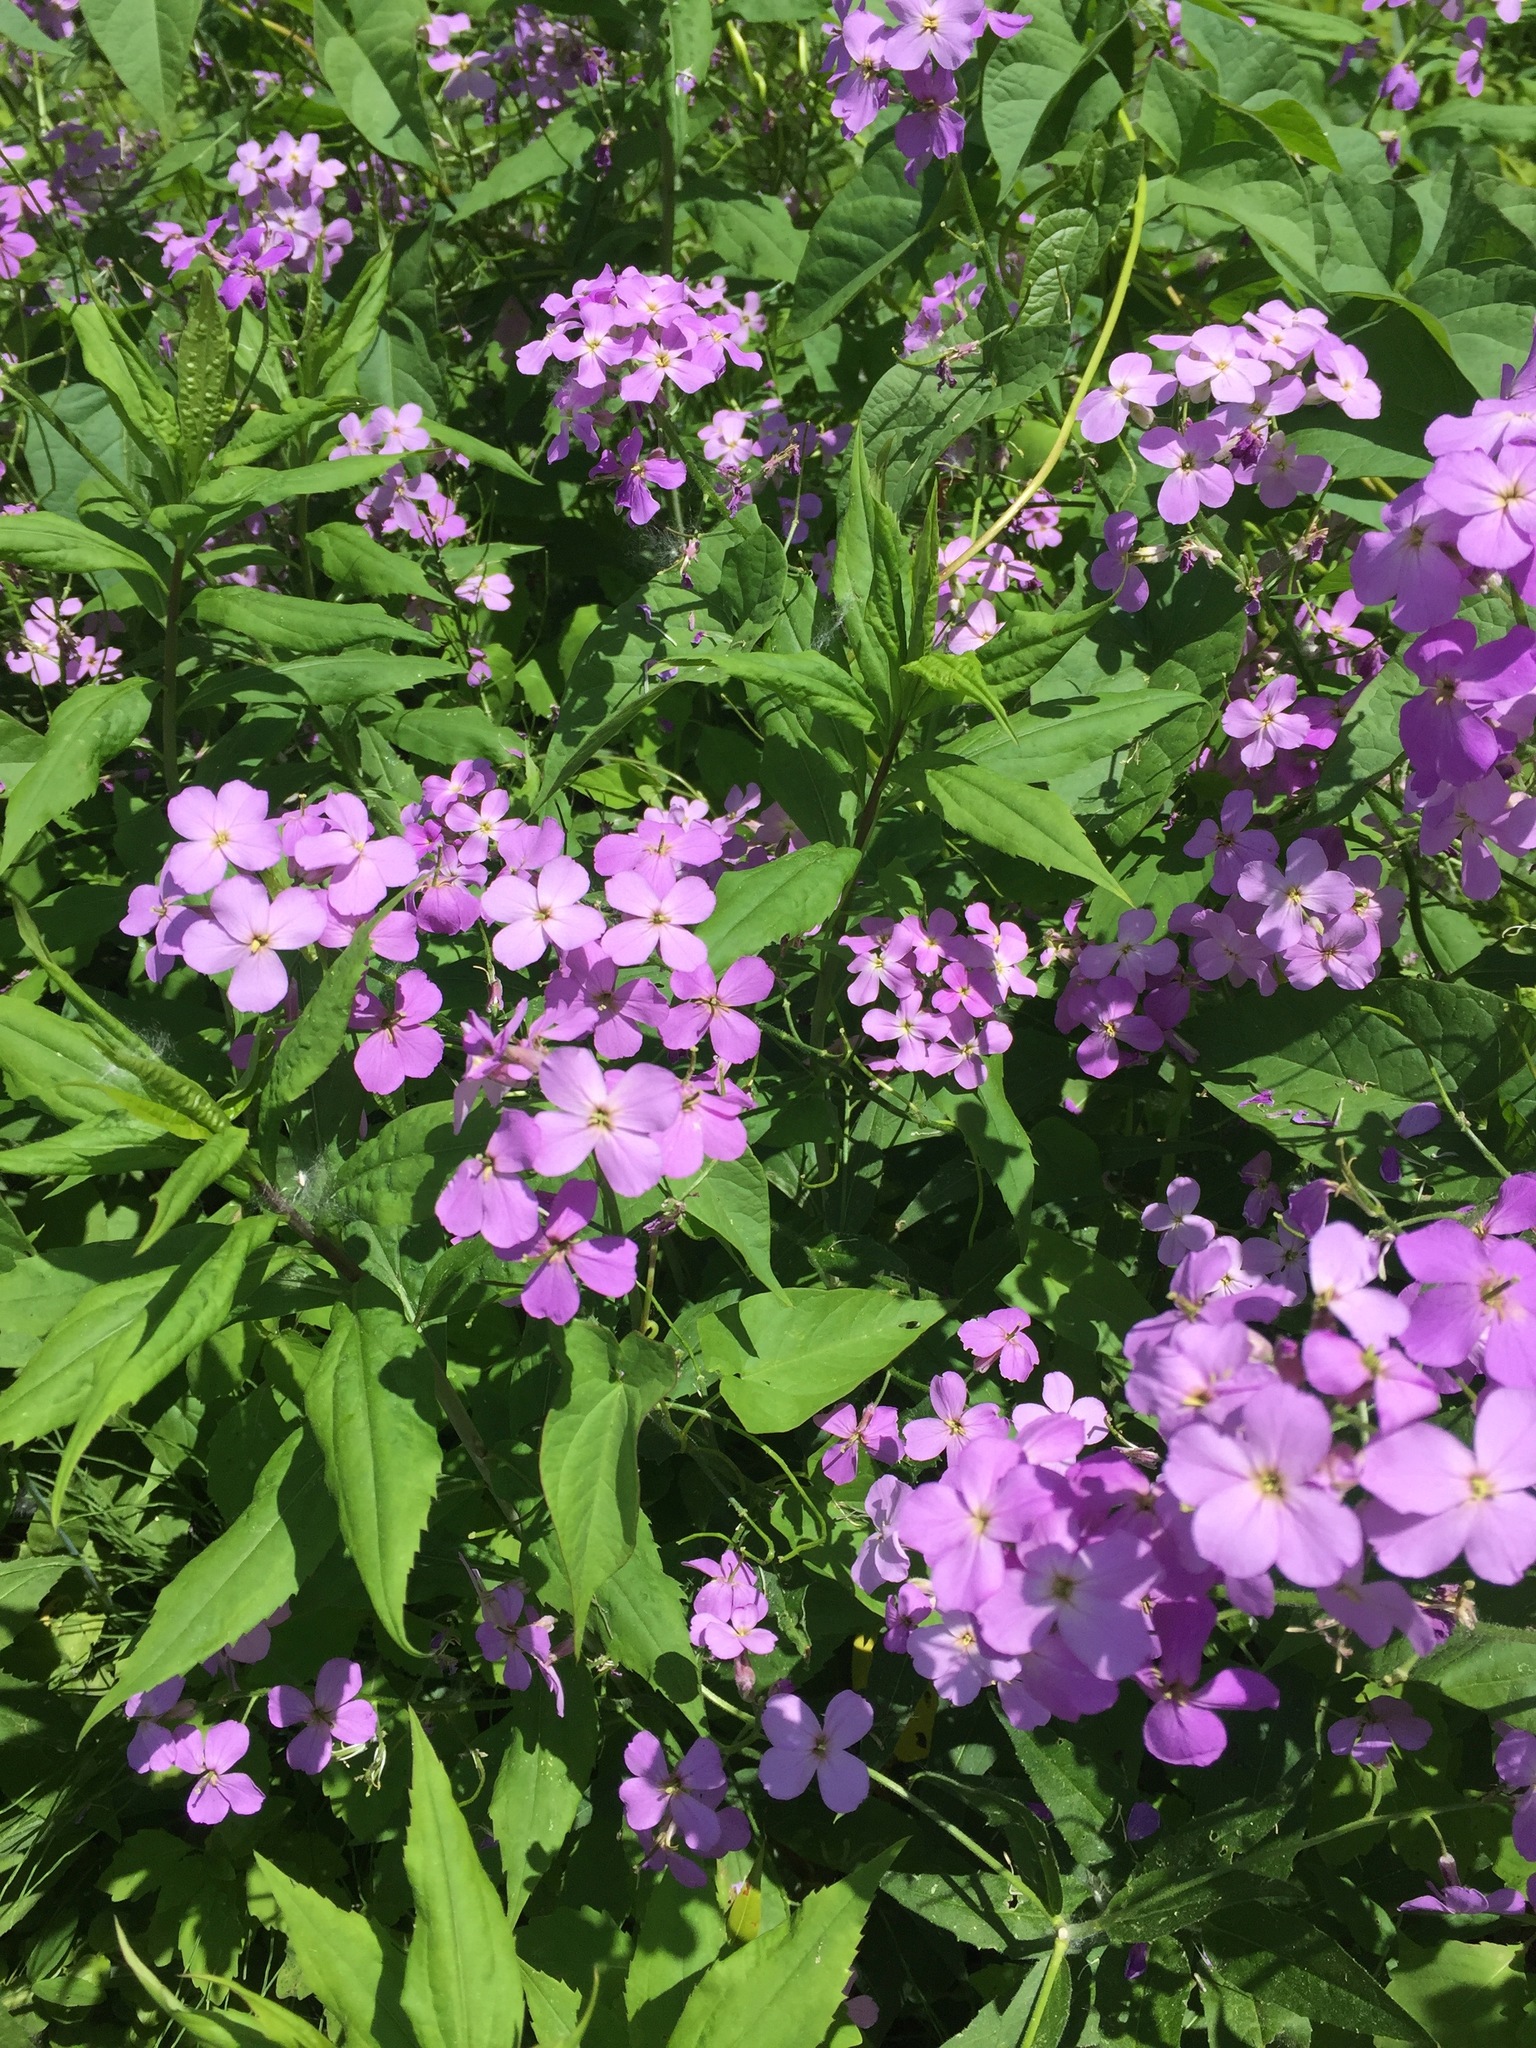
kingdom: Plantae
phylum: Tracheophyta
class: Magnoliopsida
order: Brassicales
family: Brassicaceae
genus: Hesperis
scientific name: Hesperis matronalis
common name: Dame's-violet
